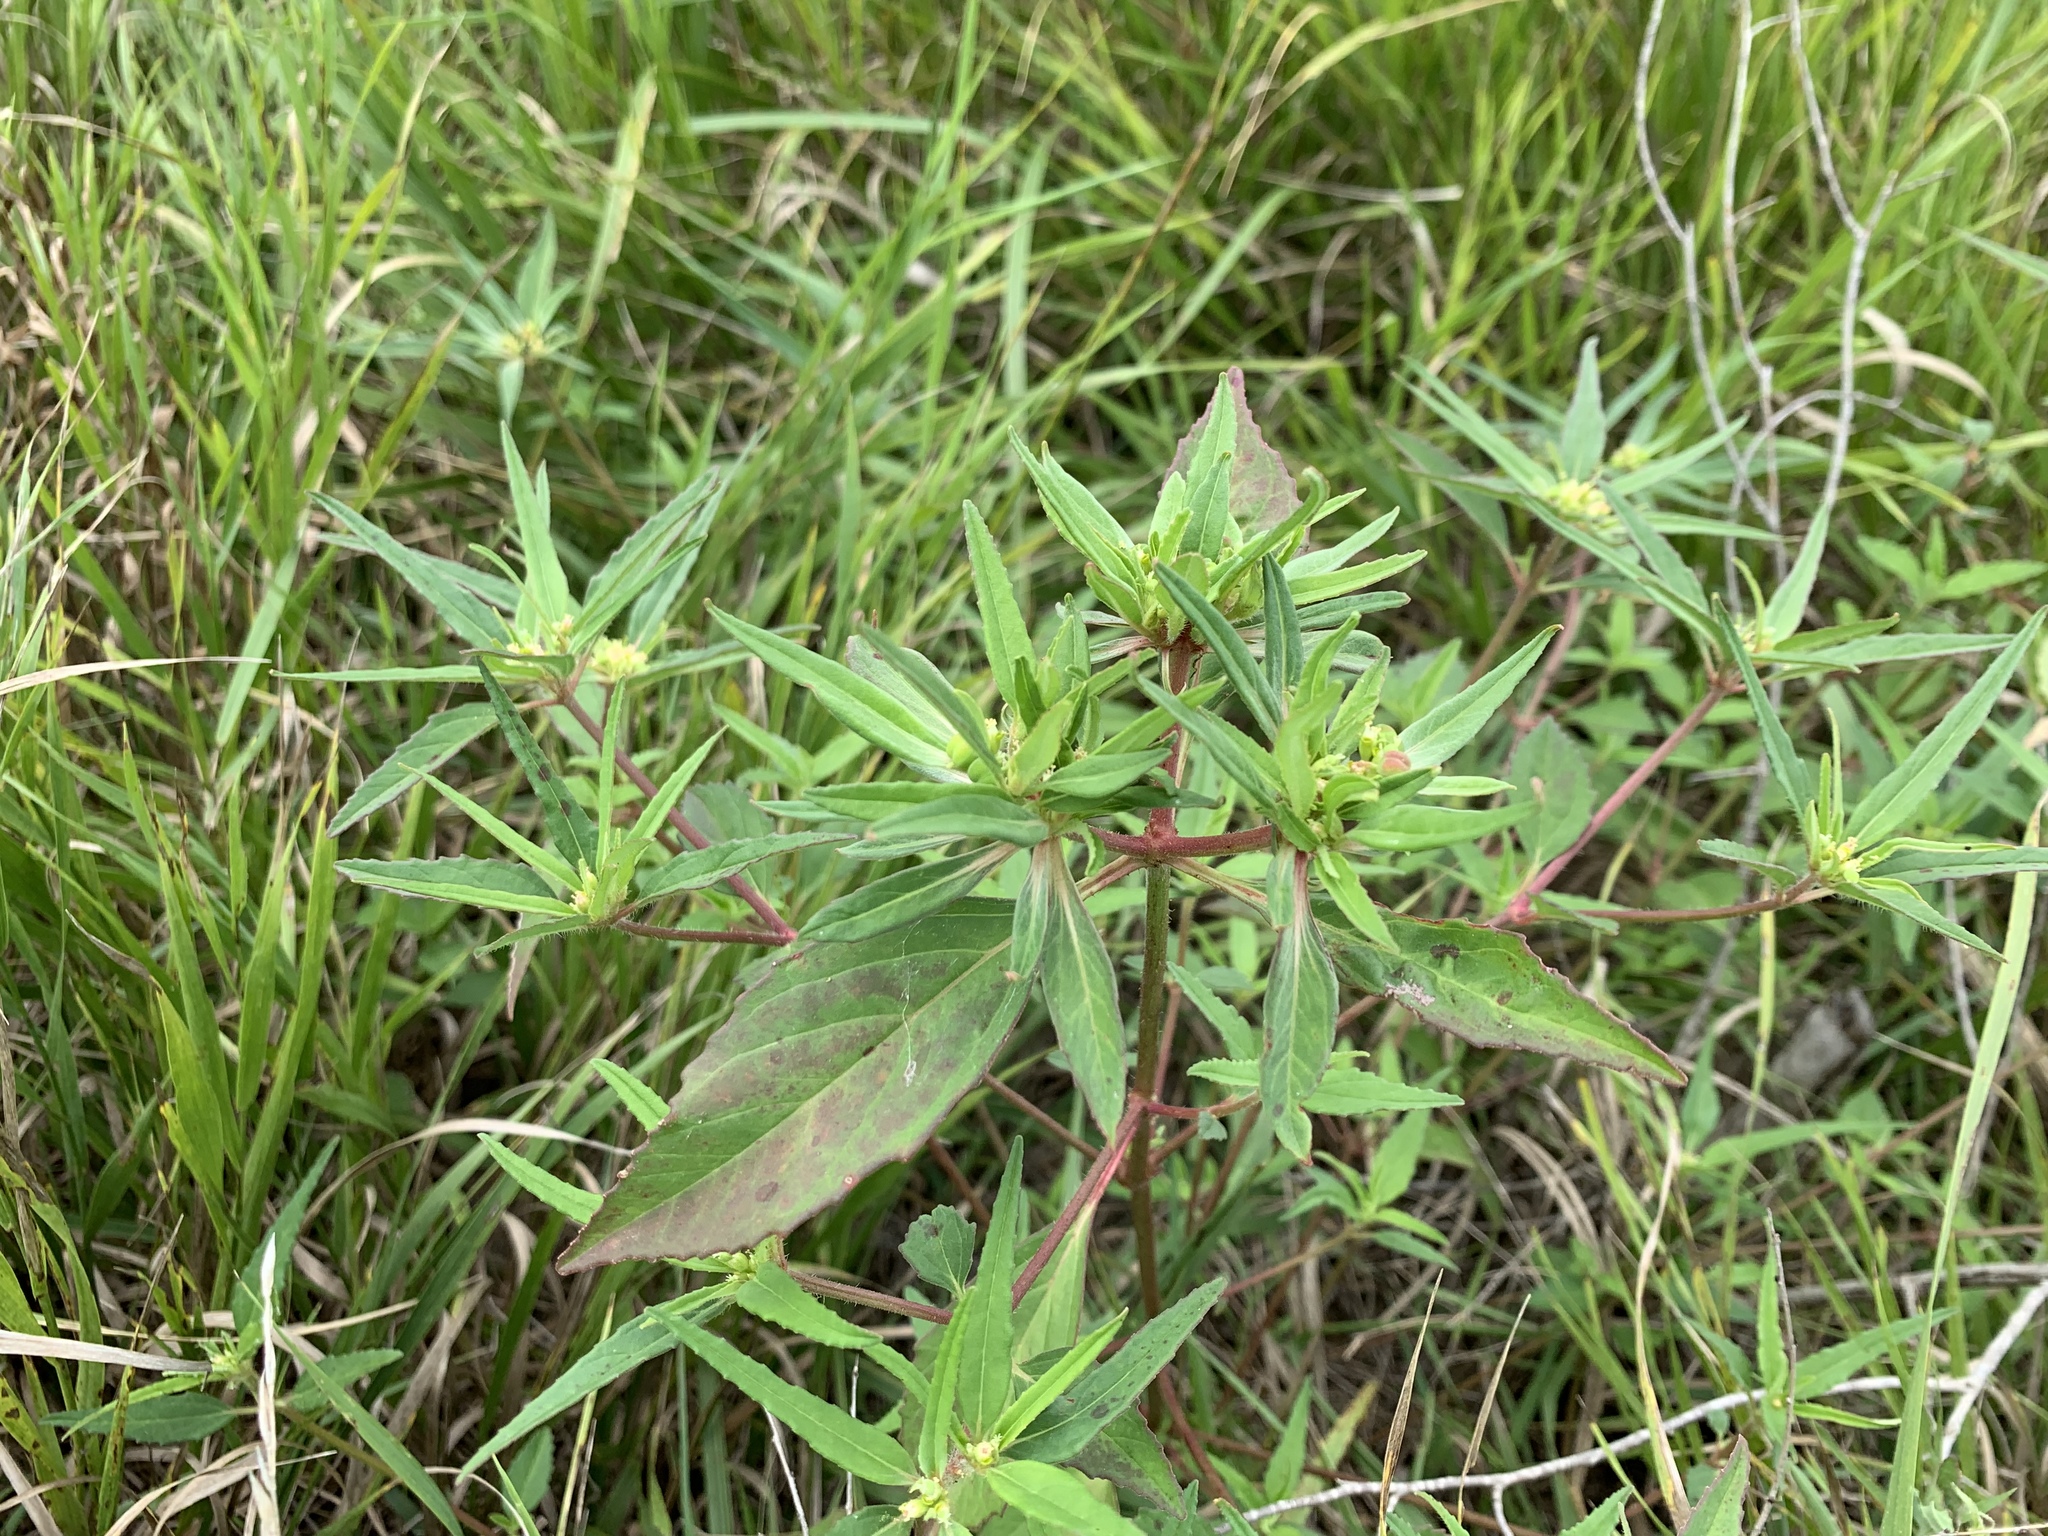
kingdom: Plantae
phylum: Tracheophyta
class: Magnoliopsida
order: Malpighiales
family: Euphorbiaceae
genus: Euphorbia
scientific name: Euphorbia davidii
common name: David's spurge
